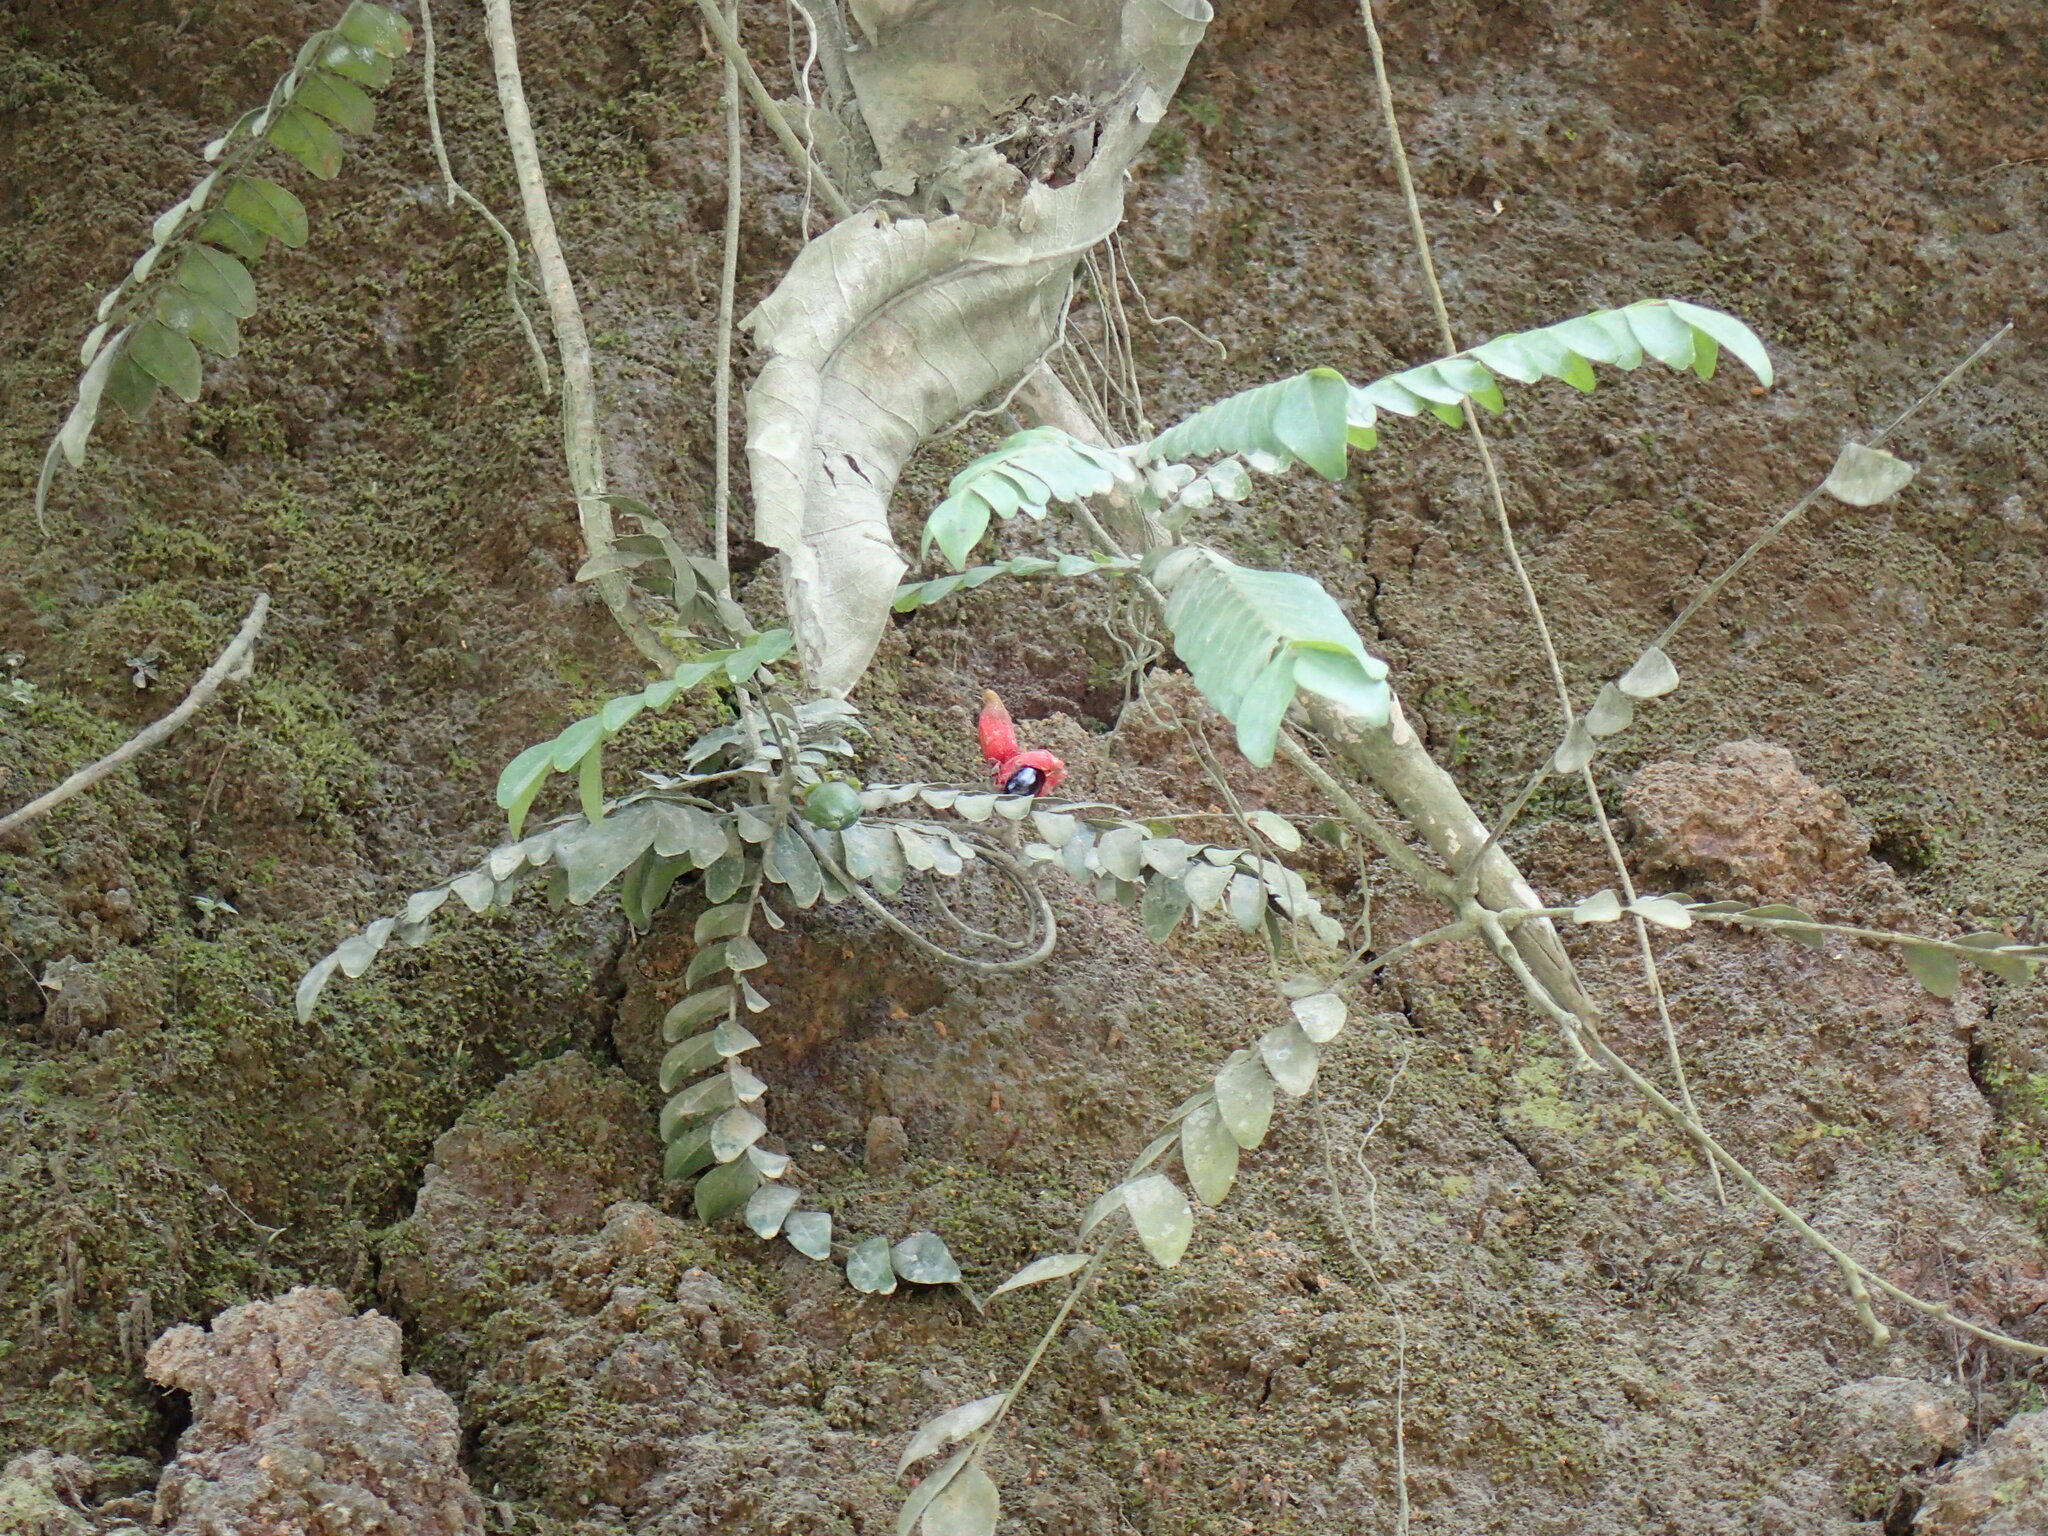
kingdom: Plantae
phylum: Tracheophyta
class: Magnoliopsida
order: Oxalidales
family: Connaraceae
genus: Rourea
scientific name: Rourea obliquifoliolata
